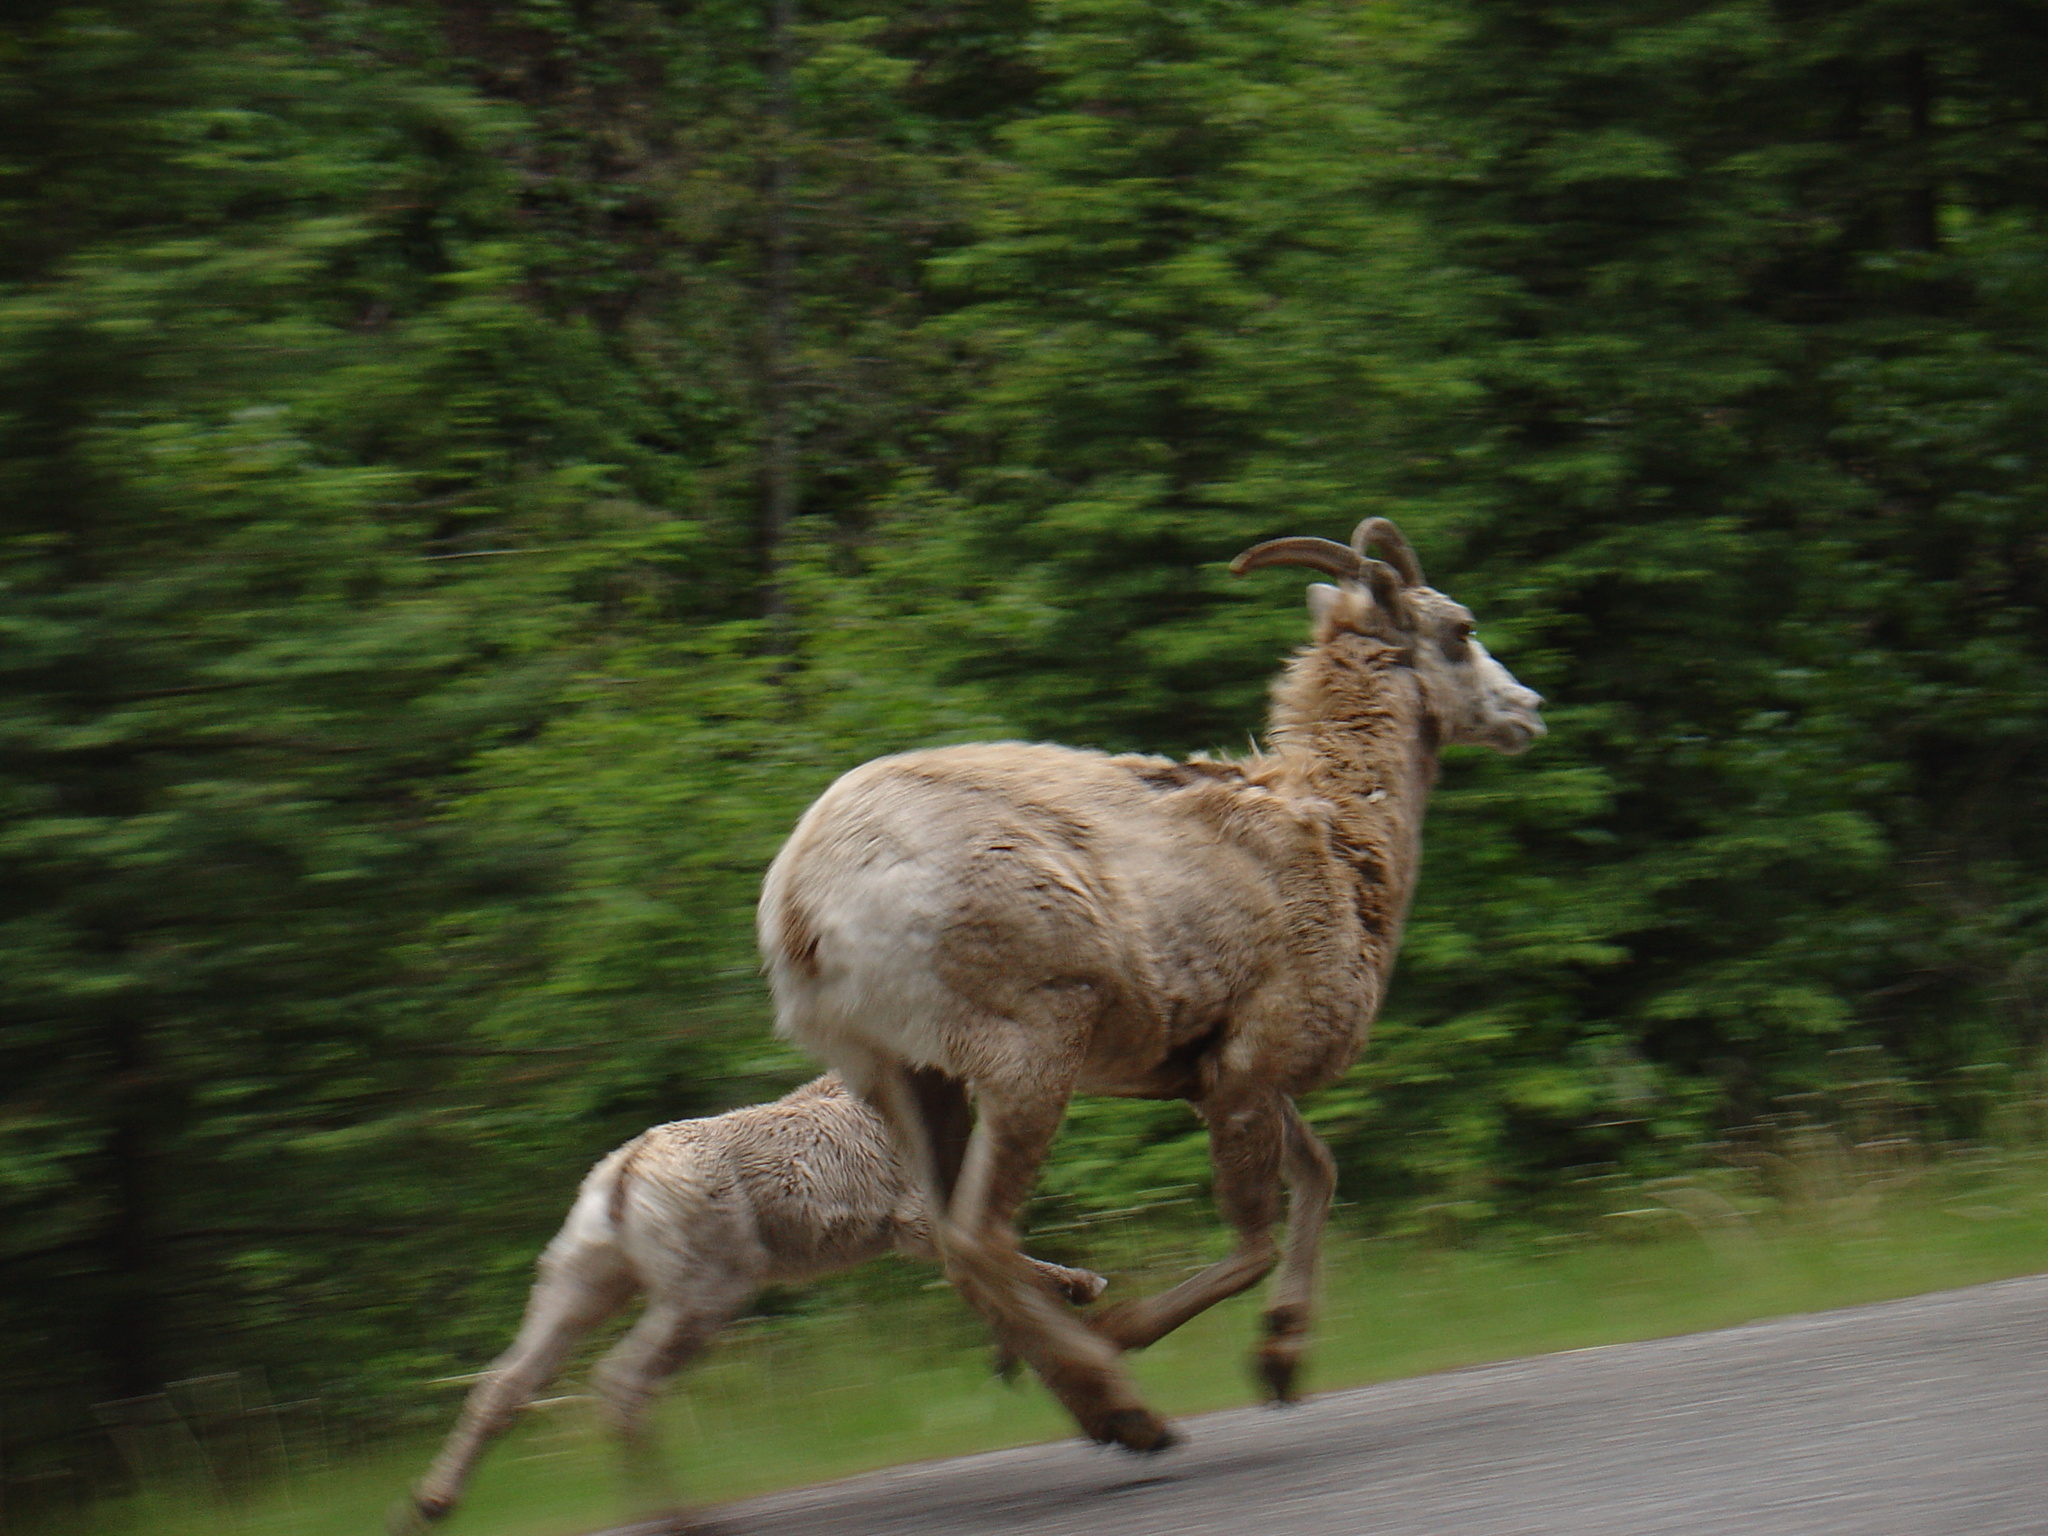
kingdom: Animalia
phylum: Chordata
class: Mammalia
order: Artiodactyla
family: Bovidae
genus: Ovis
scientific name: Ovis canadensis
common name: Bighorn sheep
